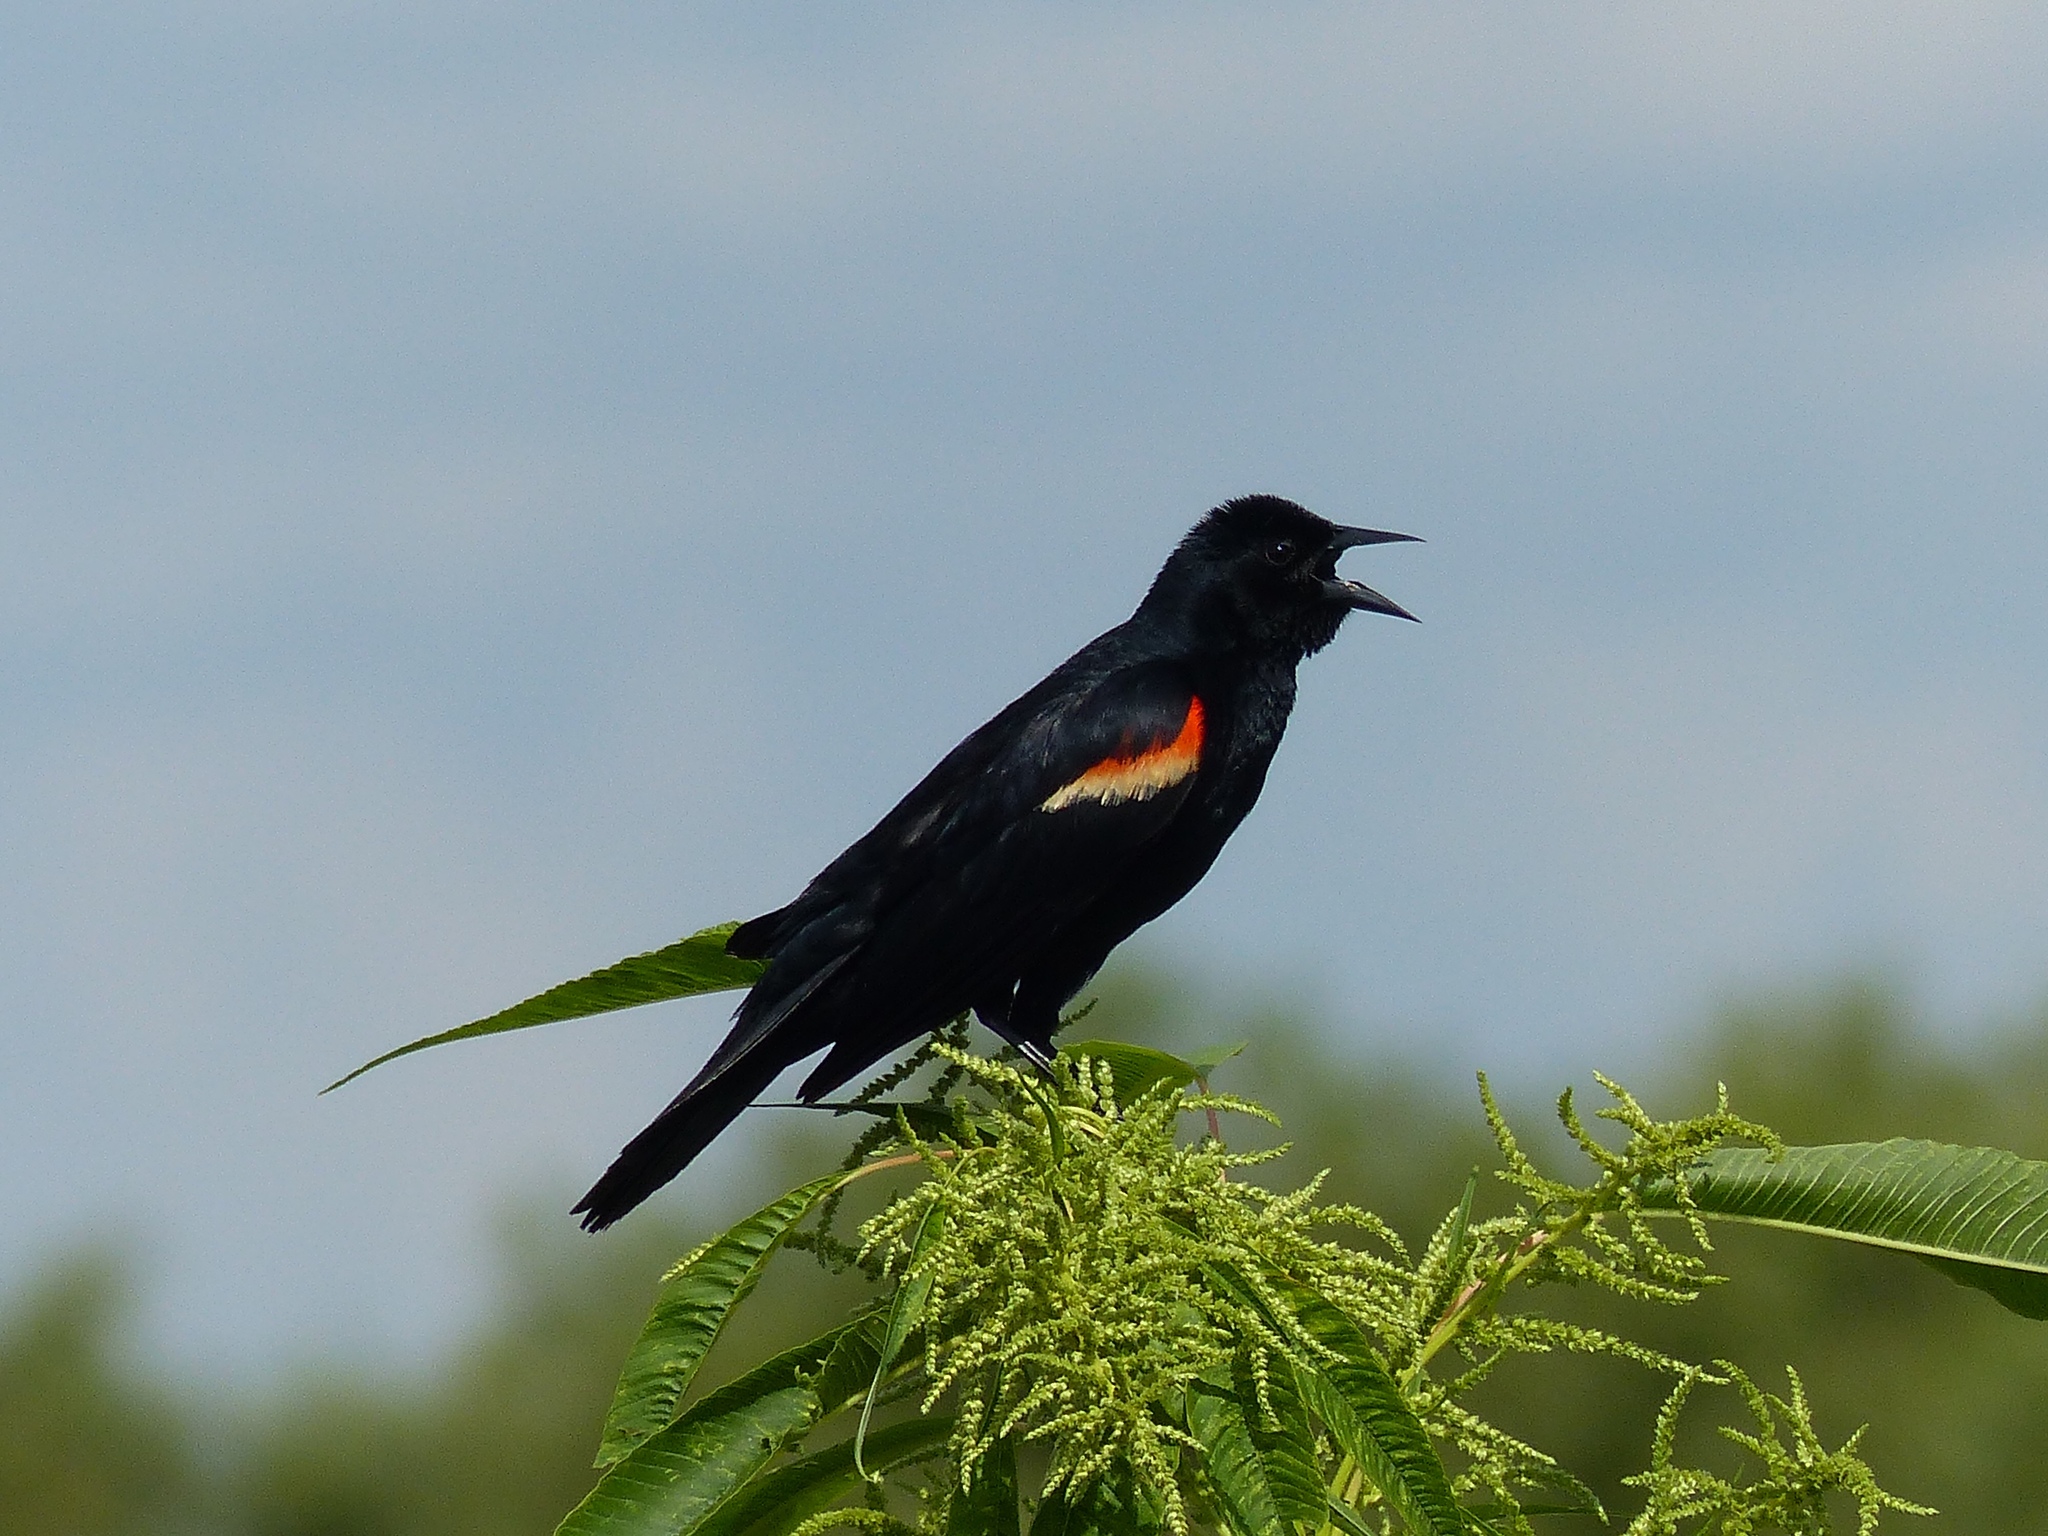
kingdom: Animalia
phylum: Chordata
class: Aves
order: Passeriformes
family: Icteridae
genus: Agelaius
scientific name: Agelaius phoeniceus
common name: Red-winged blackbird
